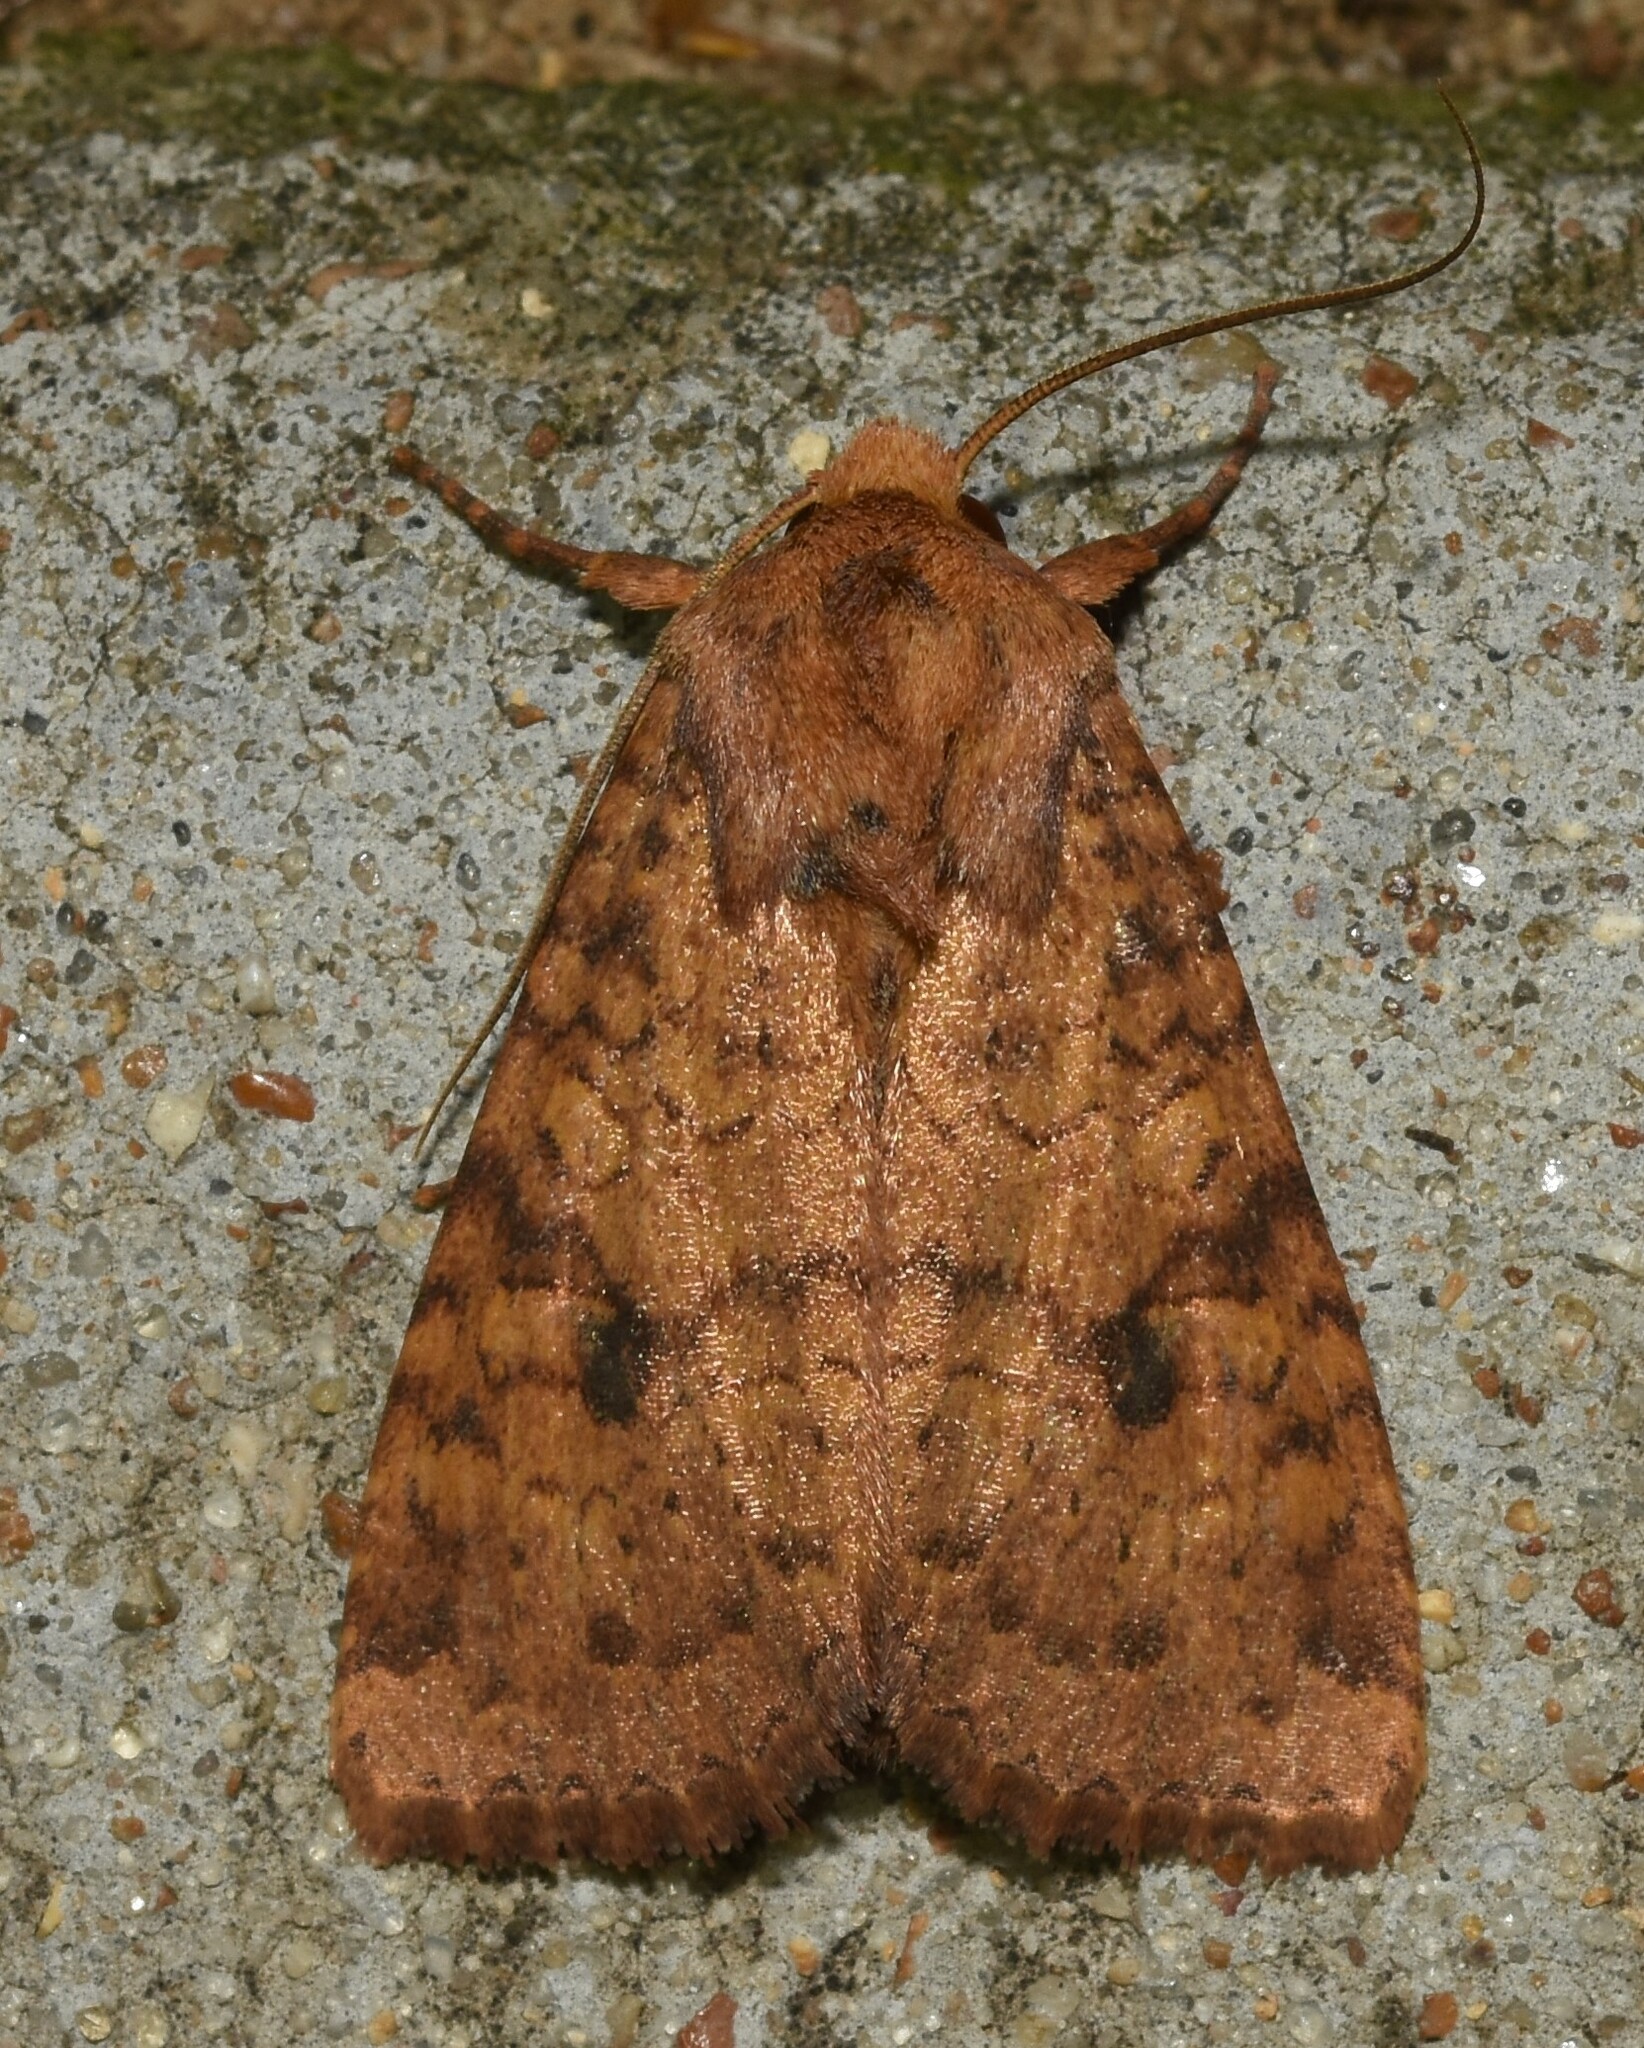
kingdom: Animalia
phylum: Arthropoda
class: Insecta
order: Lepidoptera
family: Noctuidae
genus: Apamea
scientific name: Apamea helva
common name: Yellow three-spot
